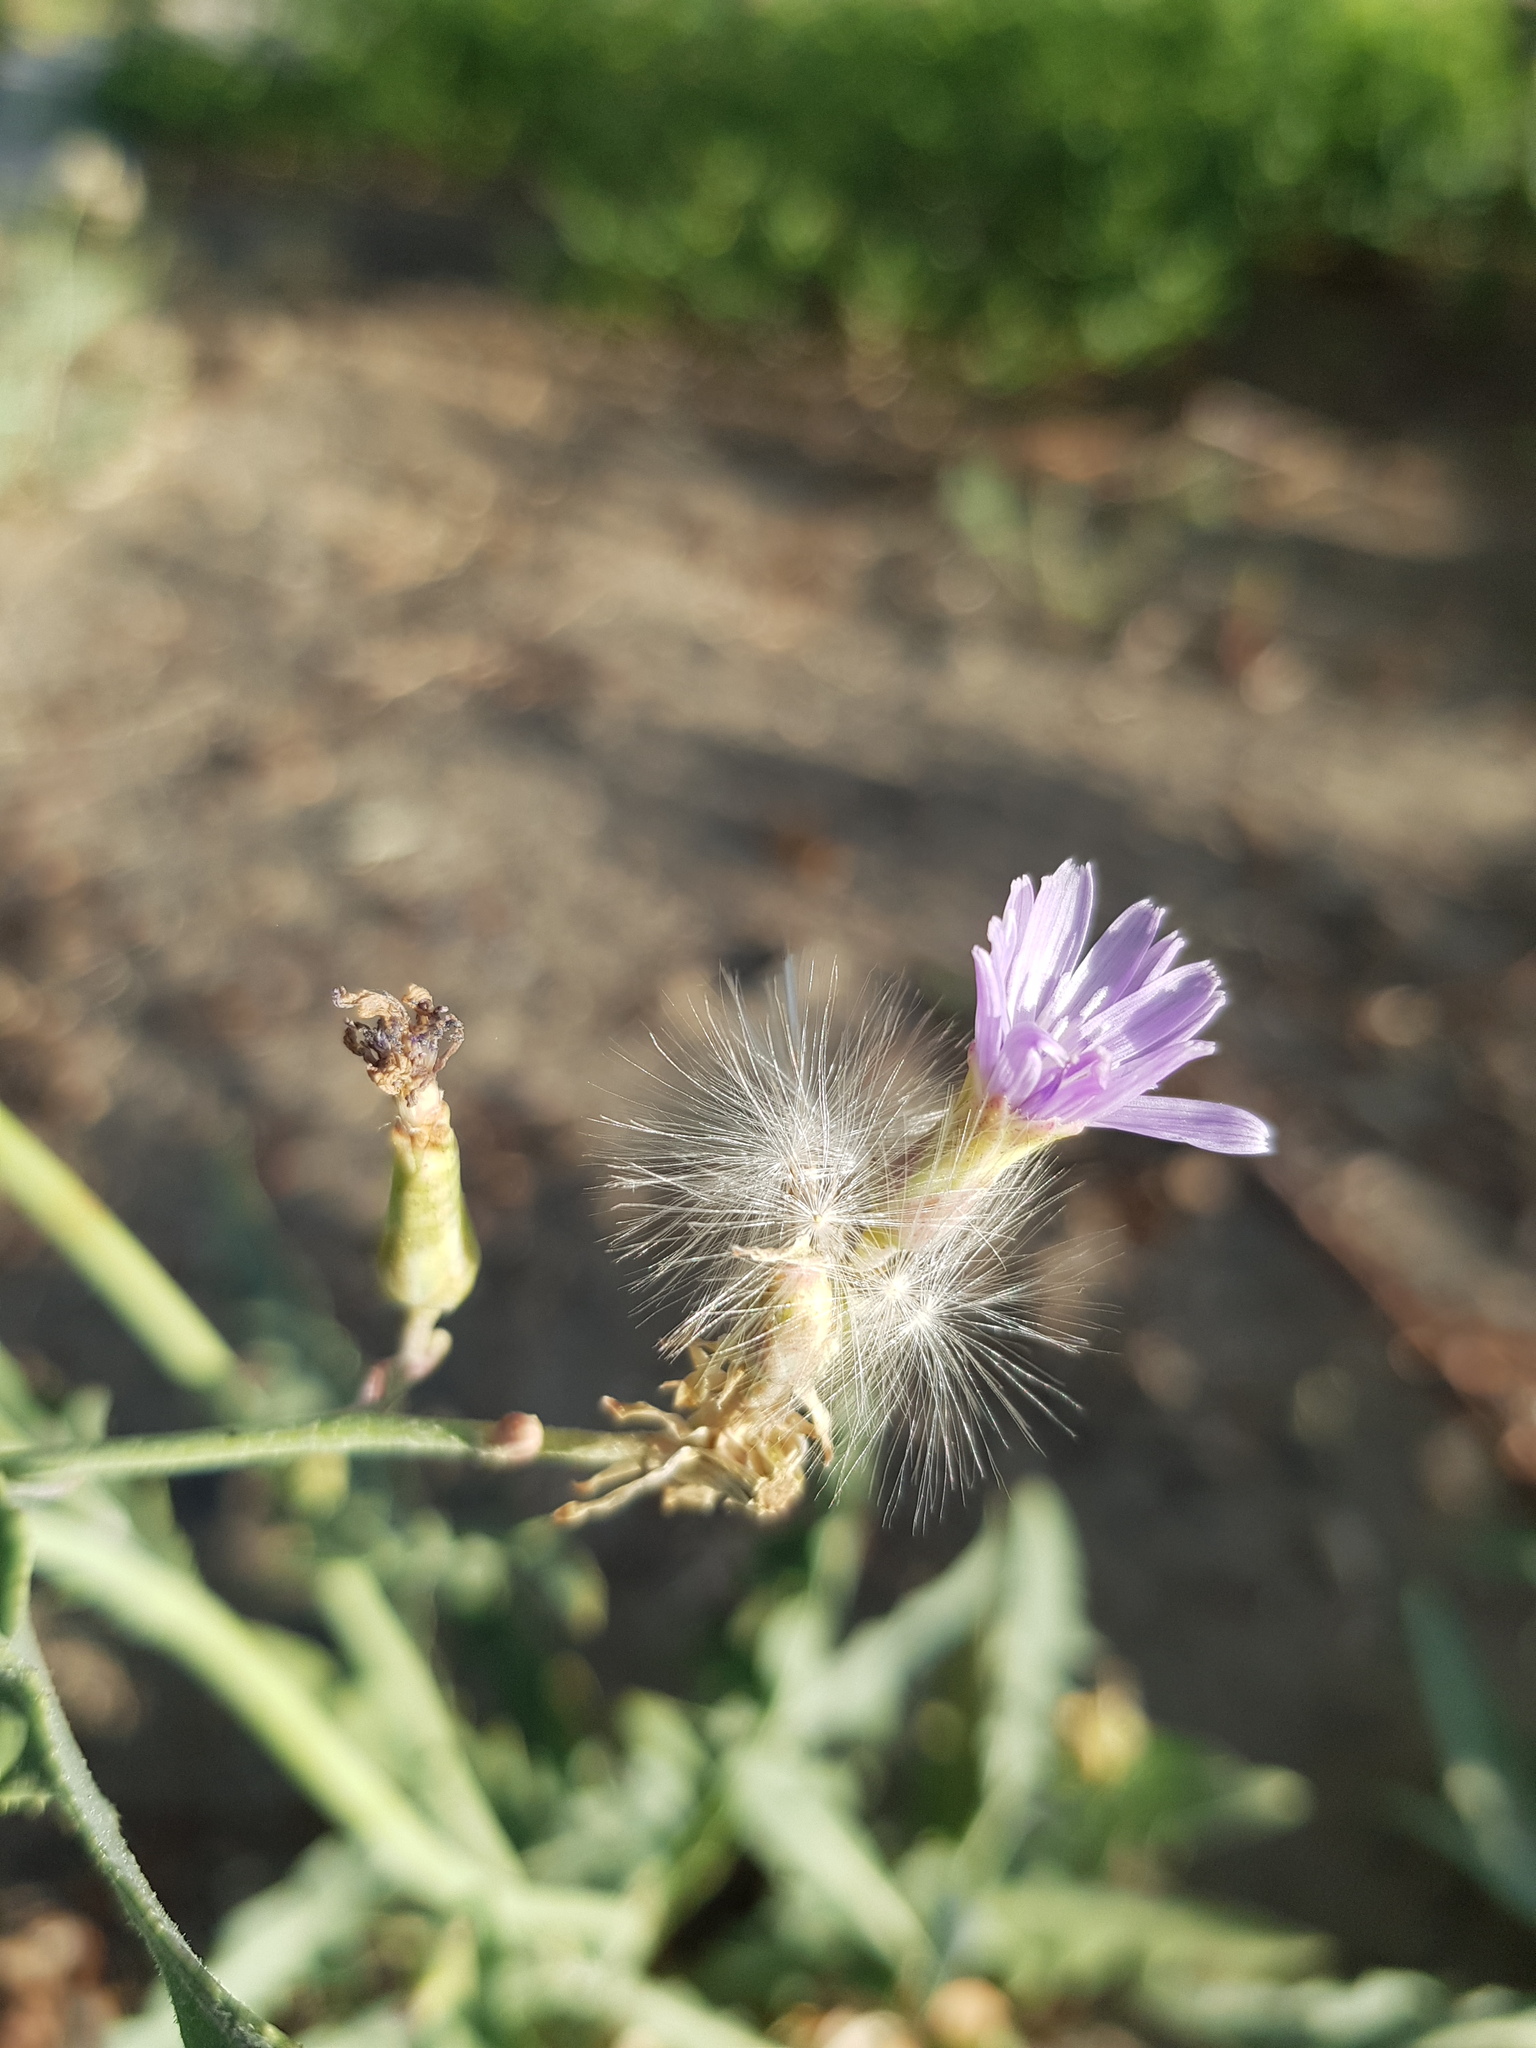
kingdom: Plantae
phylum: Tracheophyta
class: Magnoliopsida
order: Asterales
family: Asteraceae
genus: Lactuca
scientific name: Lactuca tatarica
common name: Blue lettuce
